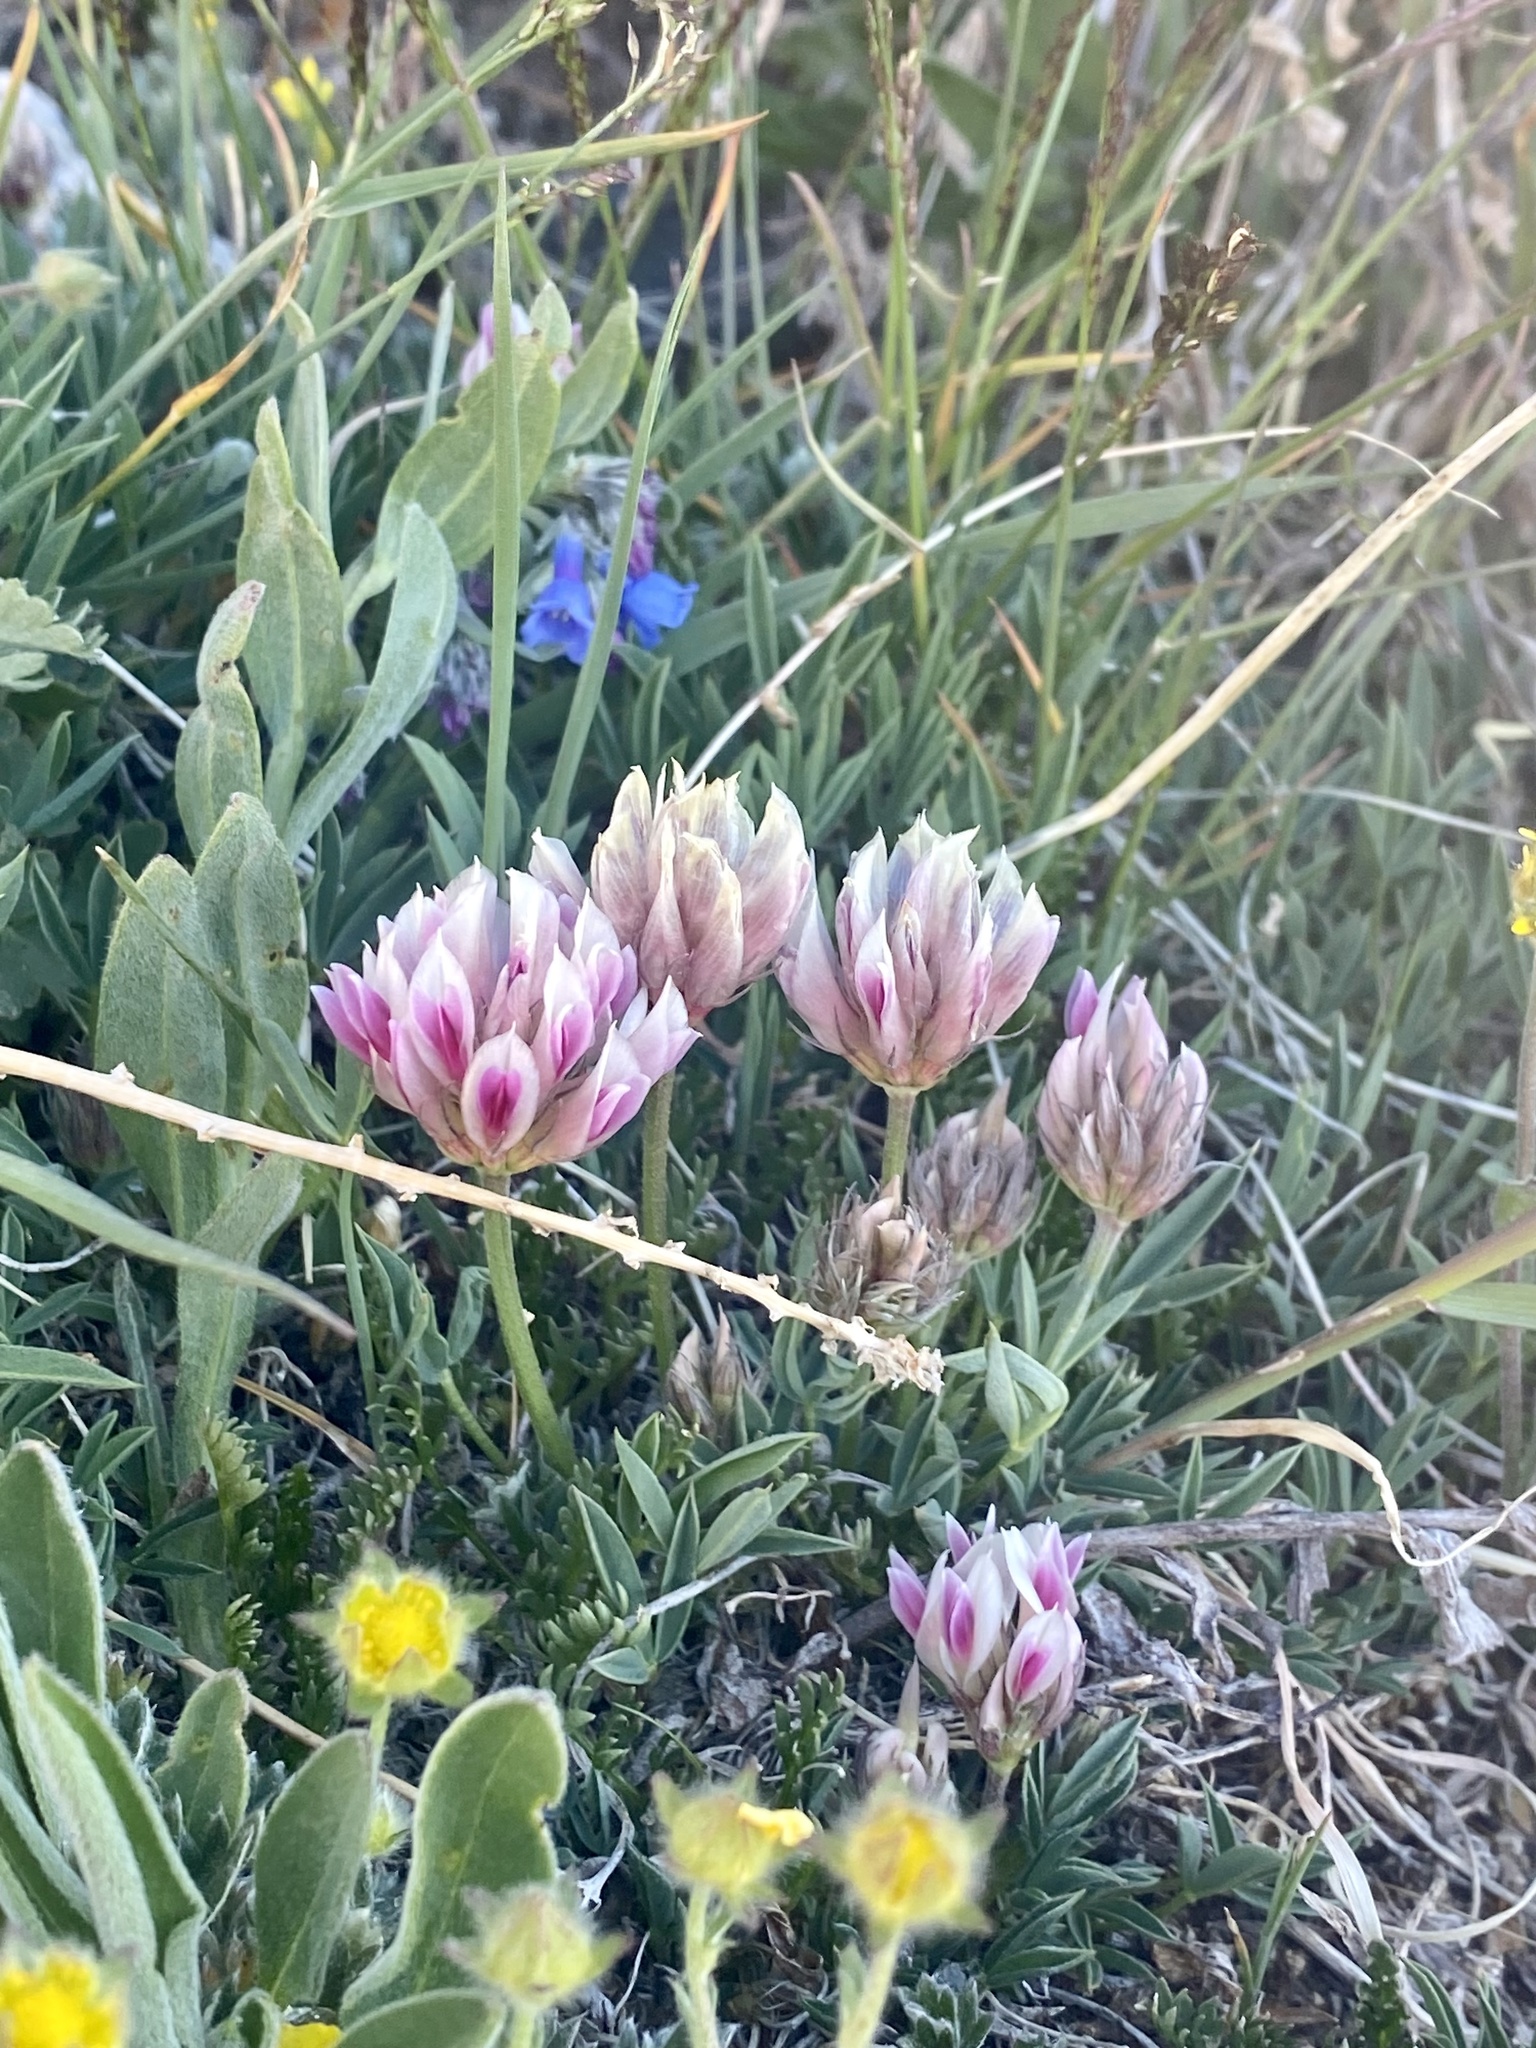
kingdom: Plantae
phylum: Tracheophyta
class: Magnoliopsida
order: Fabales
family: Fabaceae
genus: Trifolium
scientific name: Trifolium dasyphyllum
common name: Whip-root clover
